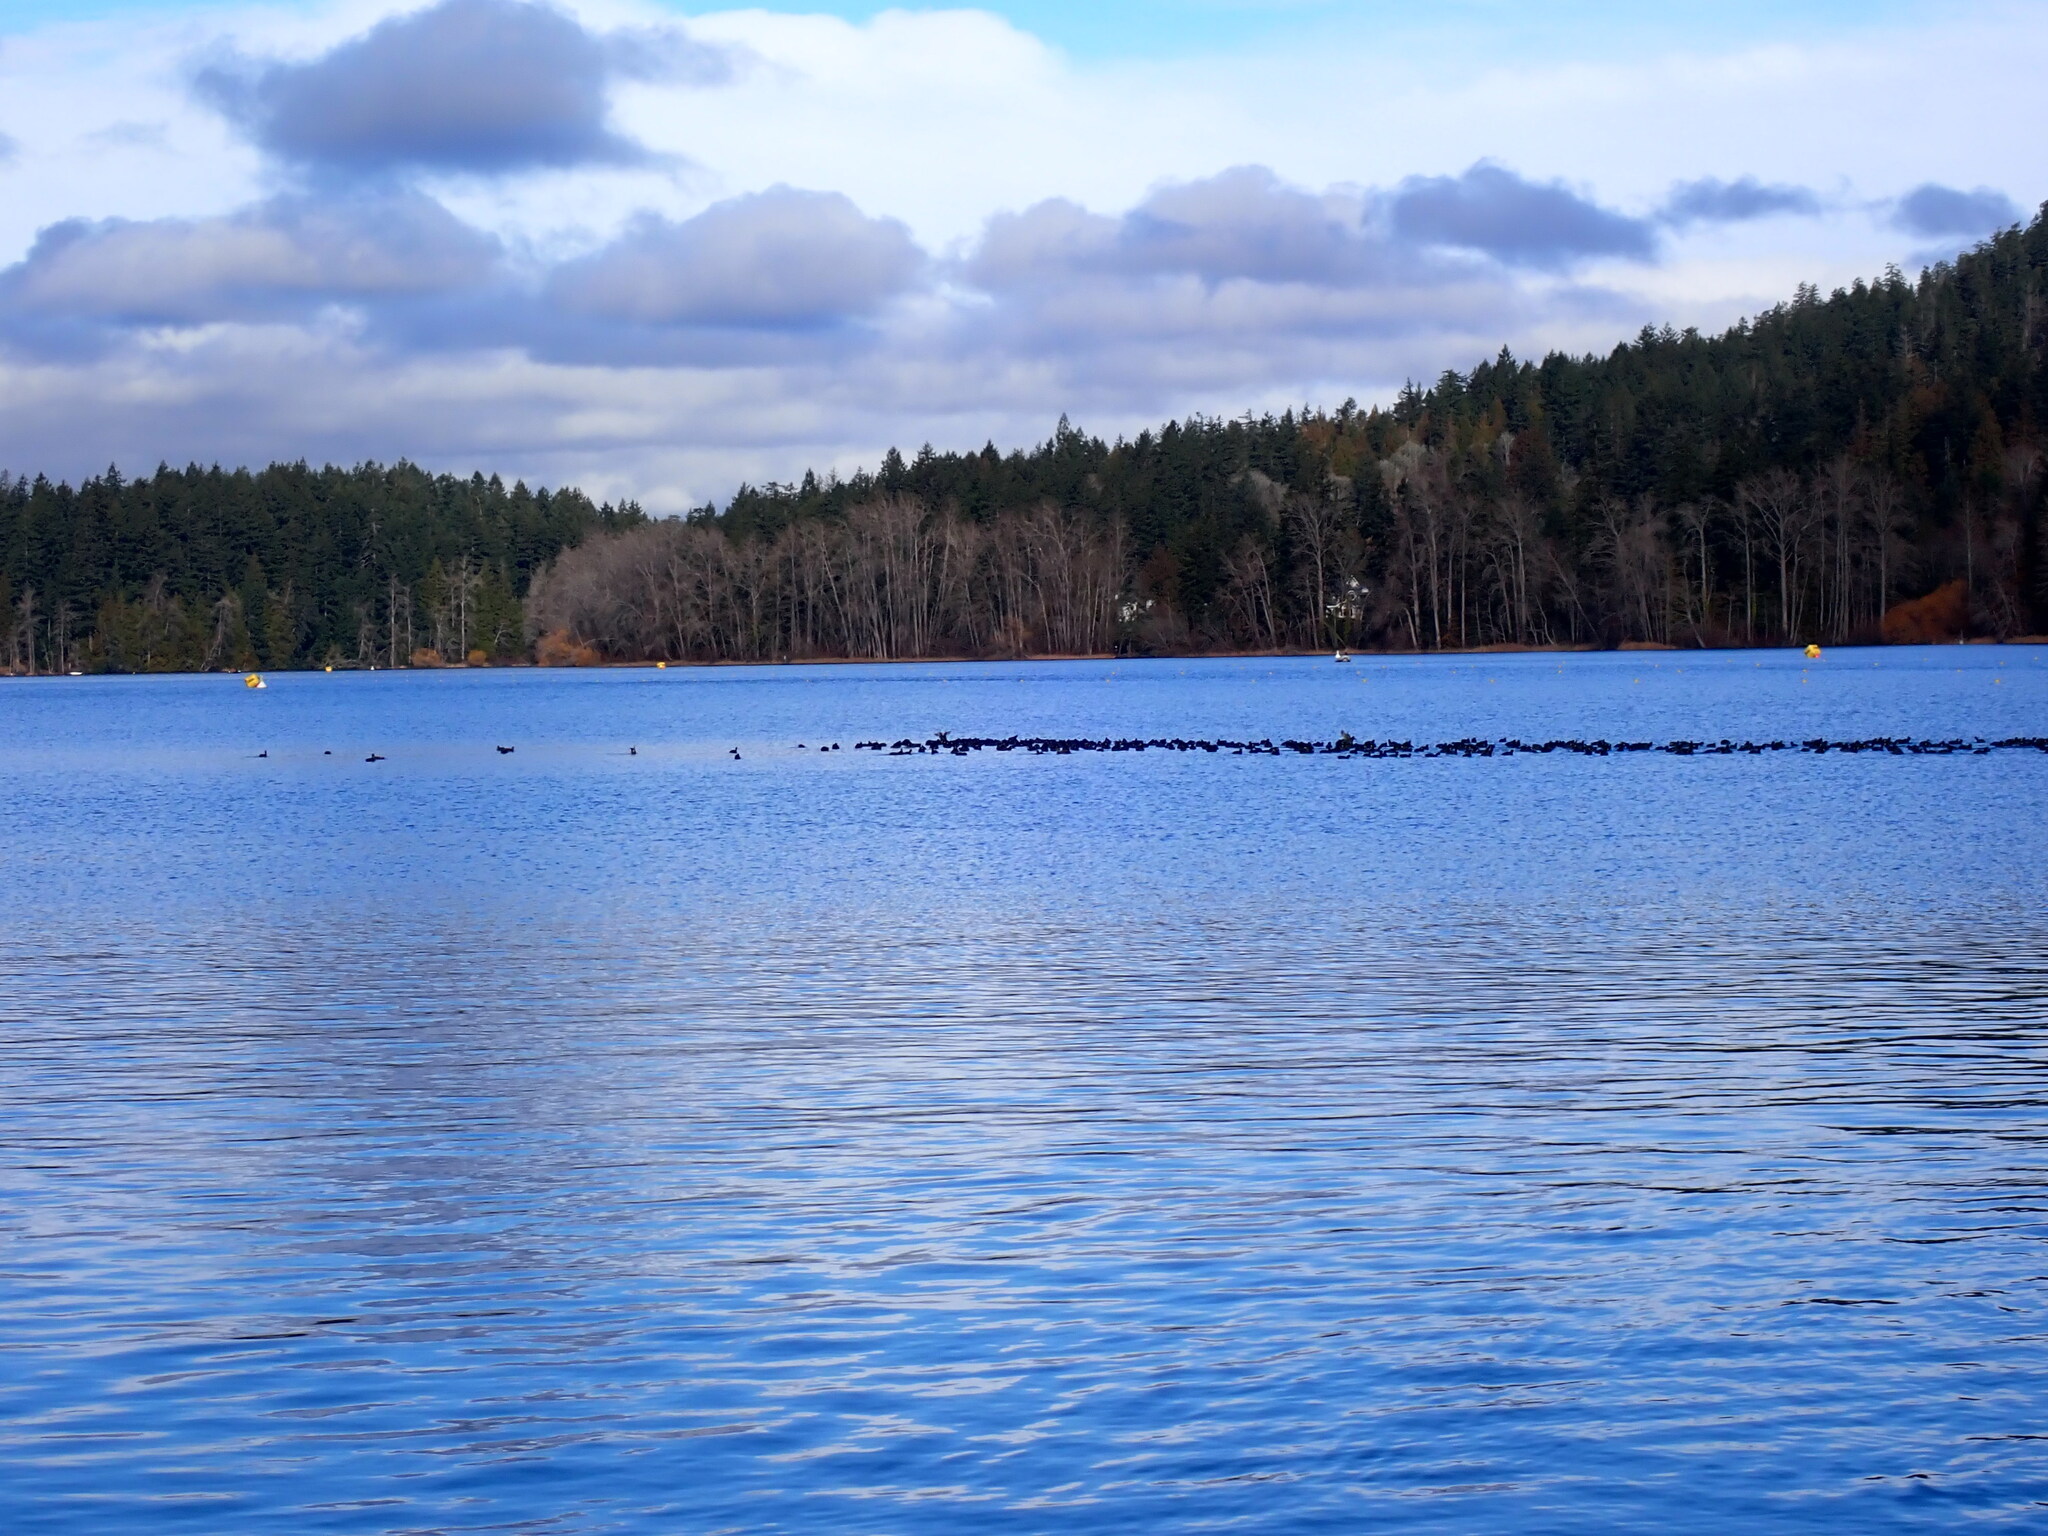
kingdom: Animalia
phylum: Chordata
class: Aves
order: Gruiformes
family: Rallidae
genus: Fulica
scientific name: Fulica americana
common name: American coot
